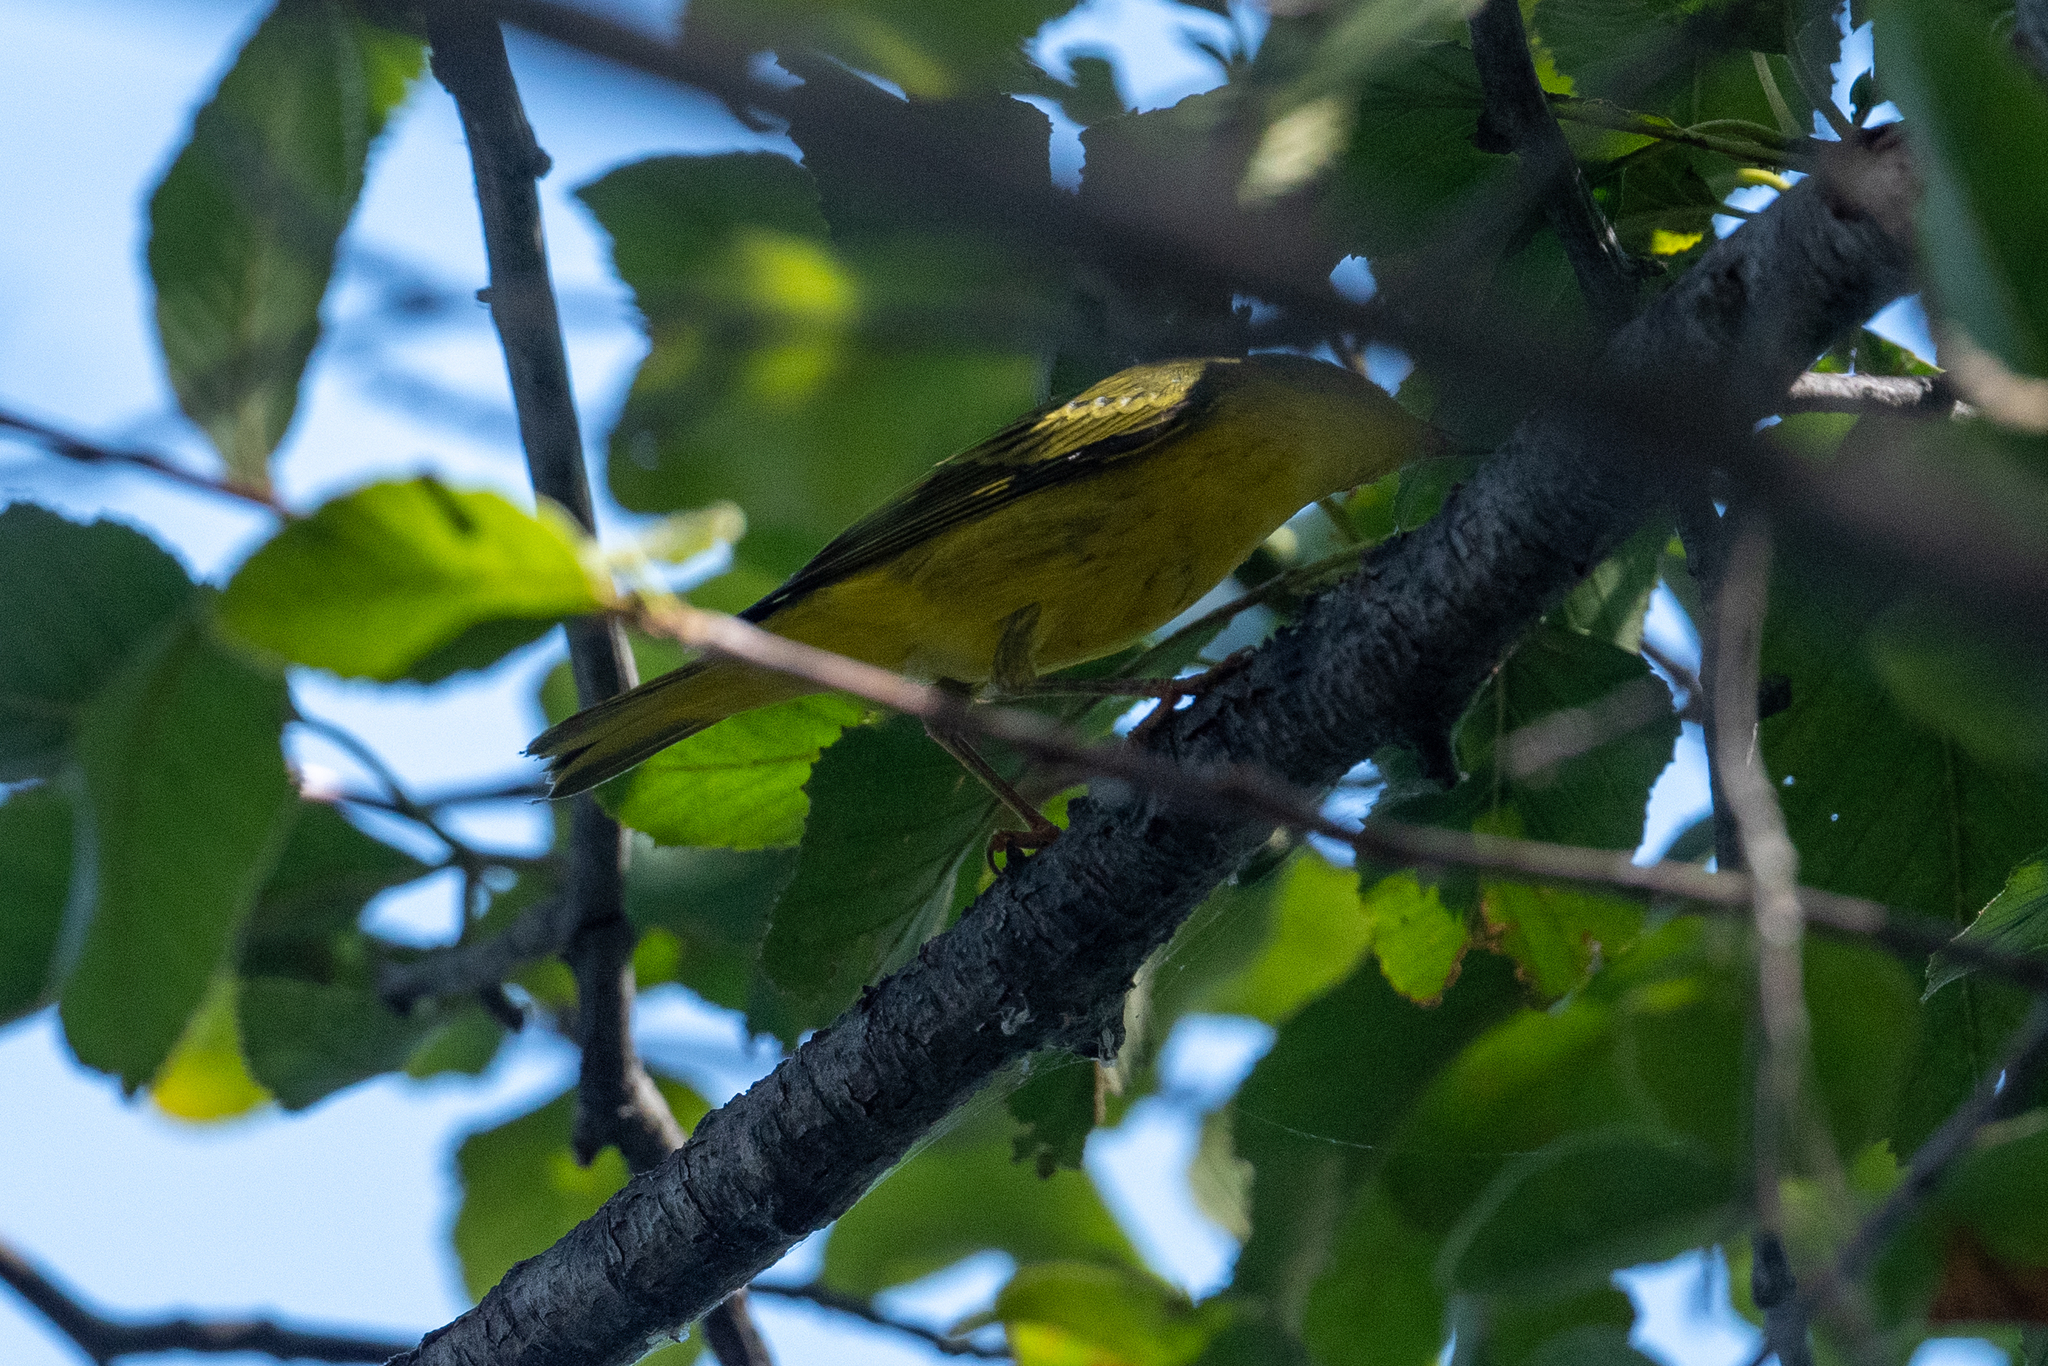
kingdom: Animalia
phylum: Chordata
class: Aves
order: Passeriformes
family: Parulidae
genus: Setophaga
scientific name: Setophaga petechia
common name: Yellow warbler
